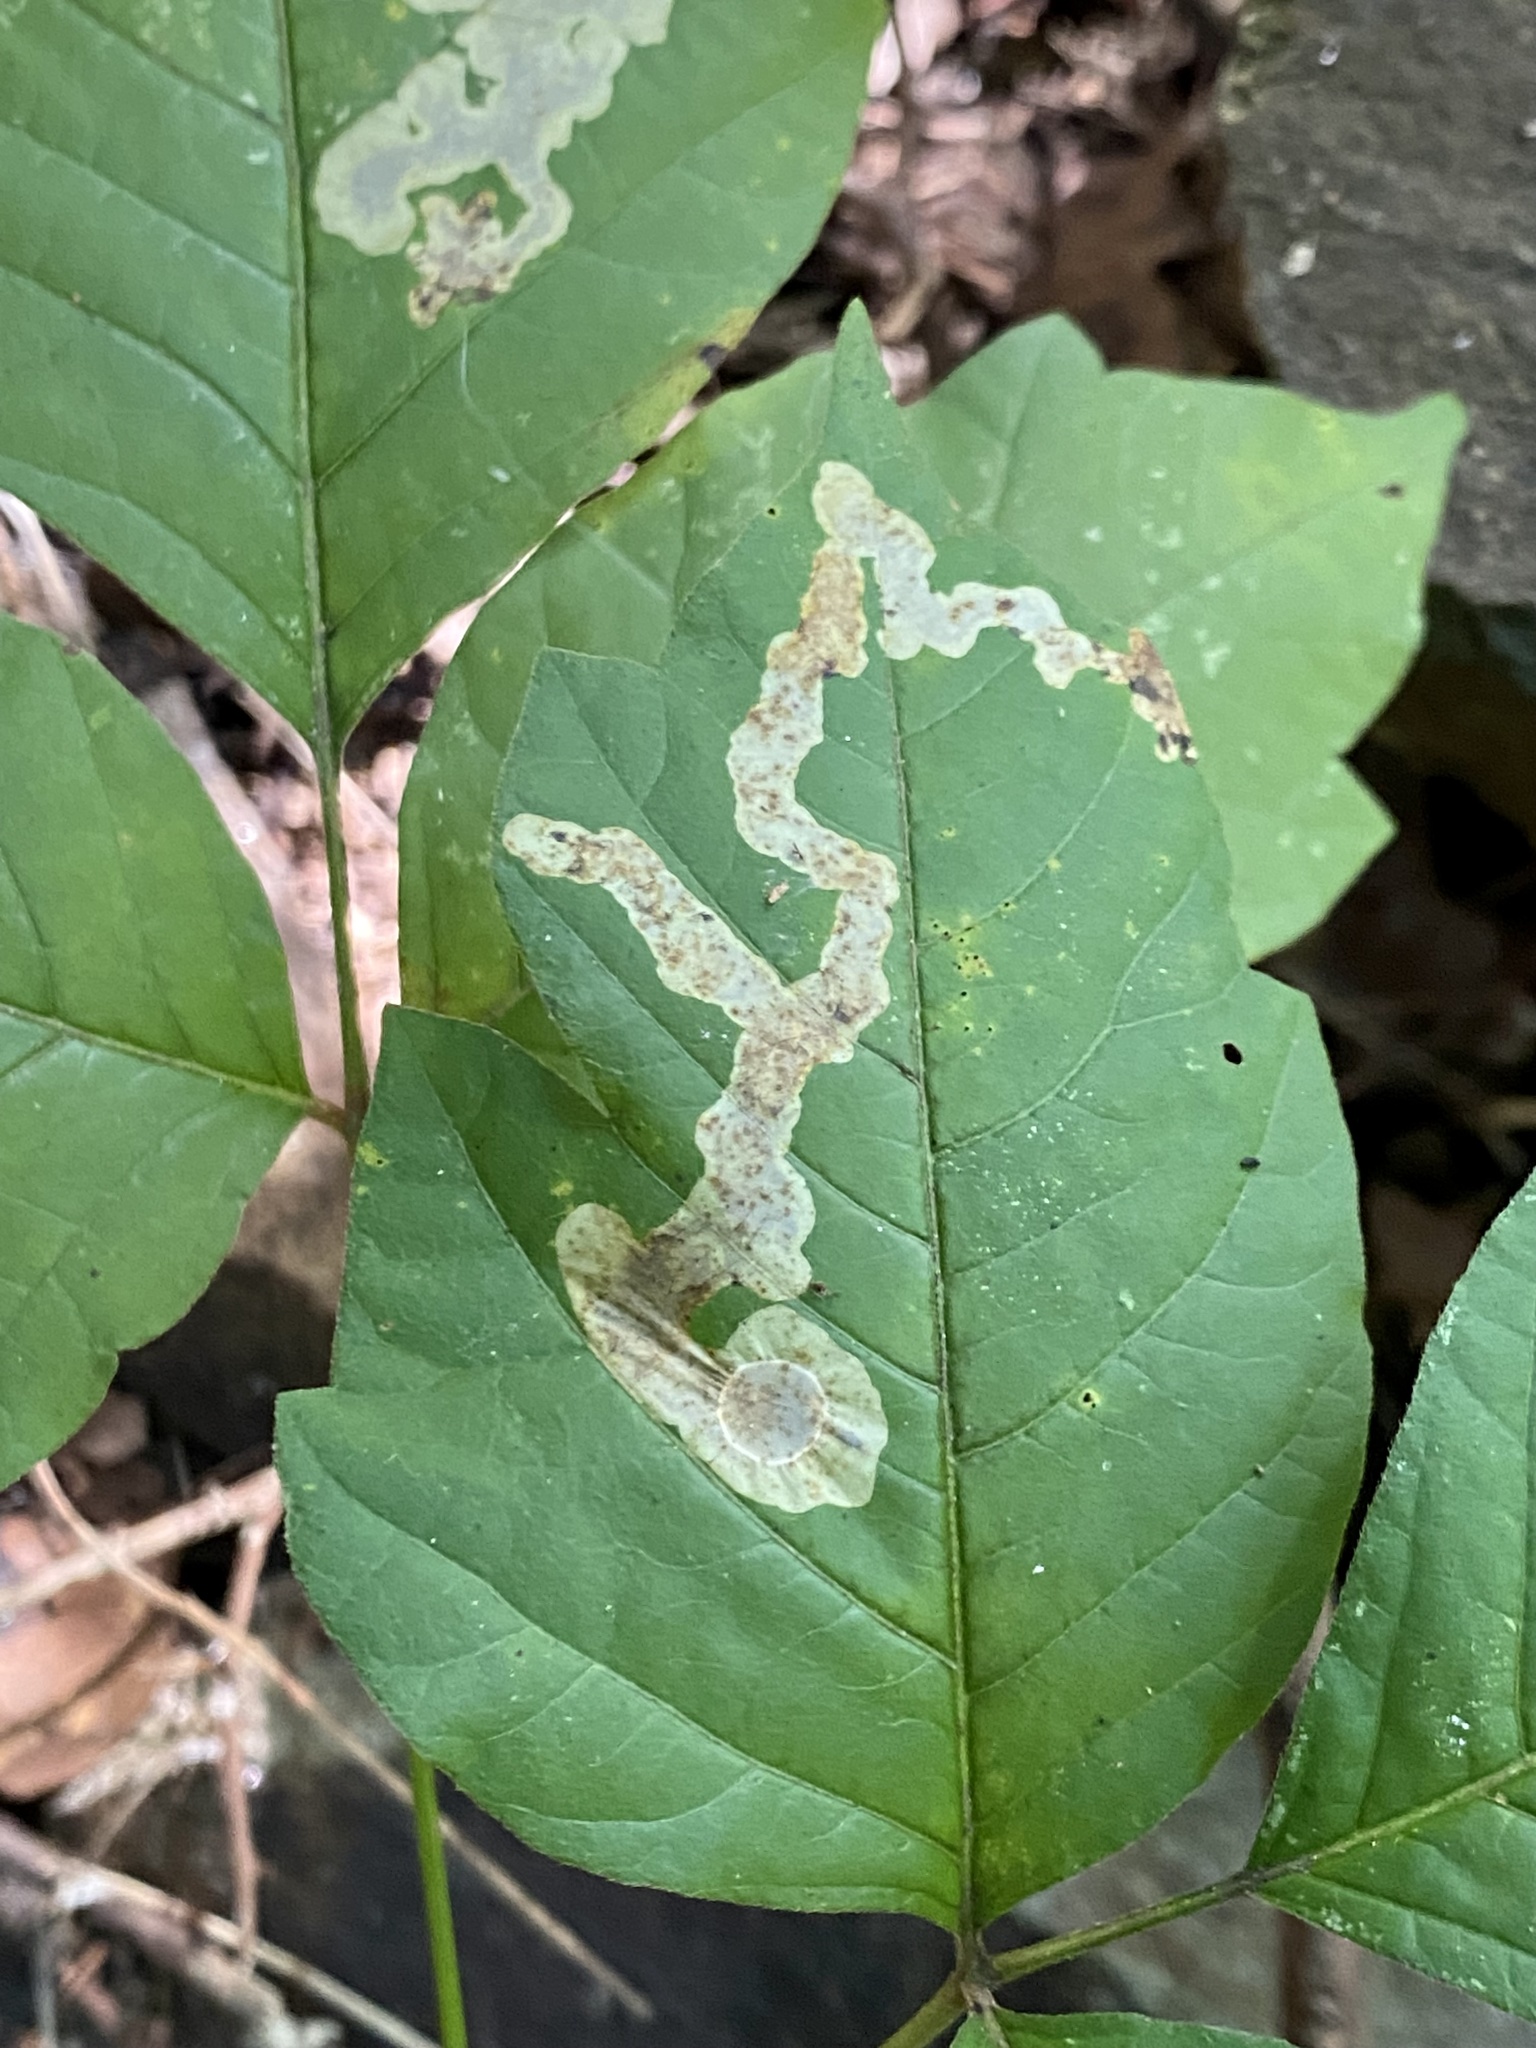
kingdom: Animalia
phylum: Arthropoda
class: Insecta
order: Lepidoptera
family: Gracillariidae
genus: Cameraria
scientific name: Cameraria guttifinitella
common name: Poison ivy leaf-miner moth
